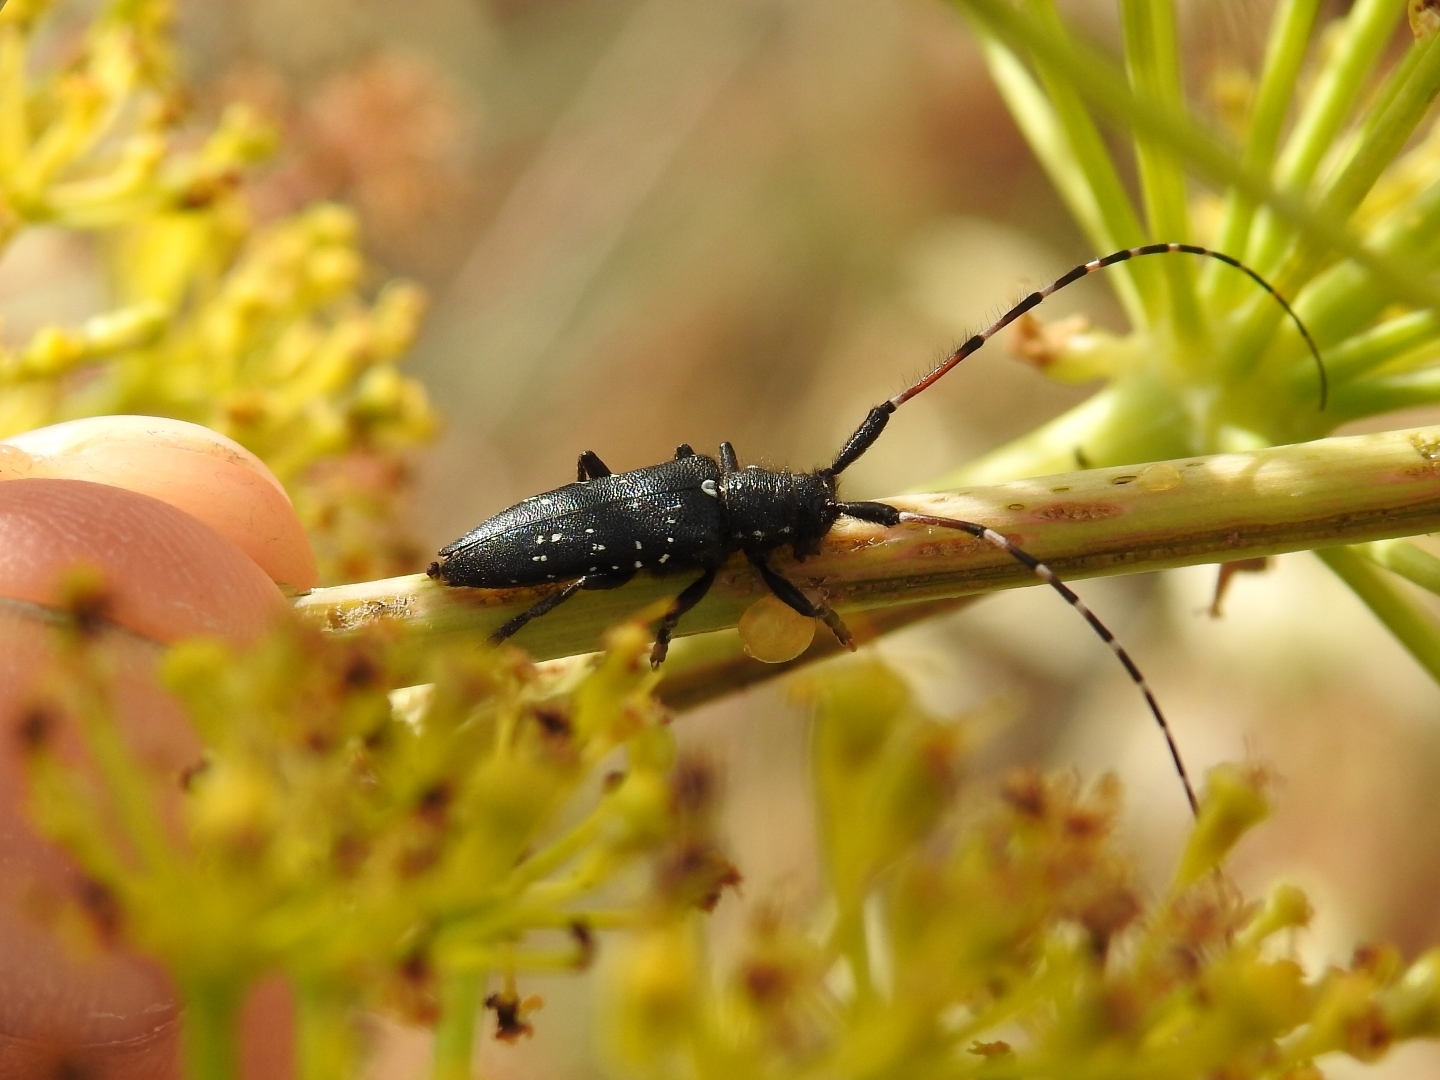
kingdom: Animalia
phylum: Arthropoda
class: Insecta
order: Coleoptera
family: Cerambycidae
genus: Agapanthia
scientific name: Agapanthia irrorata
